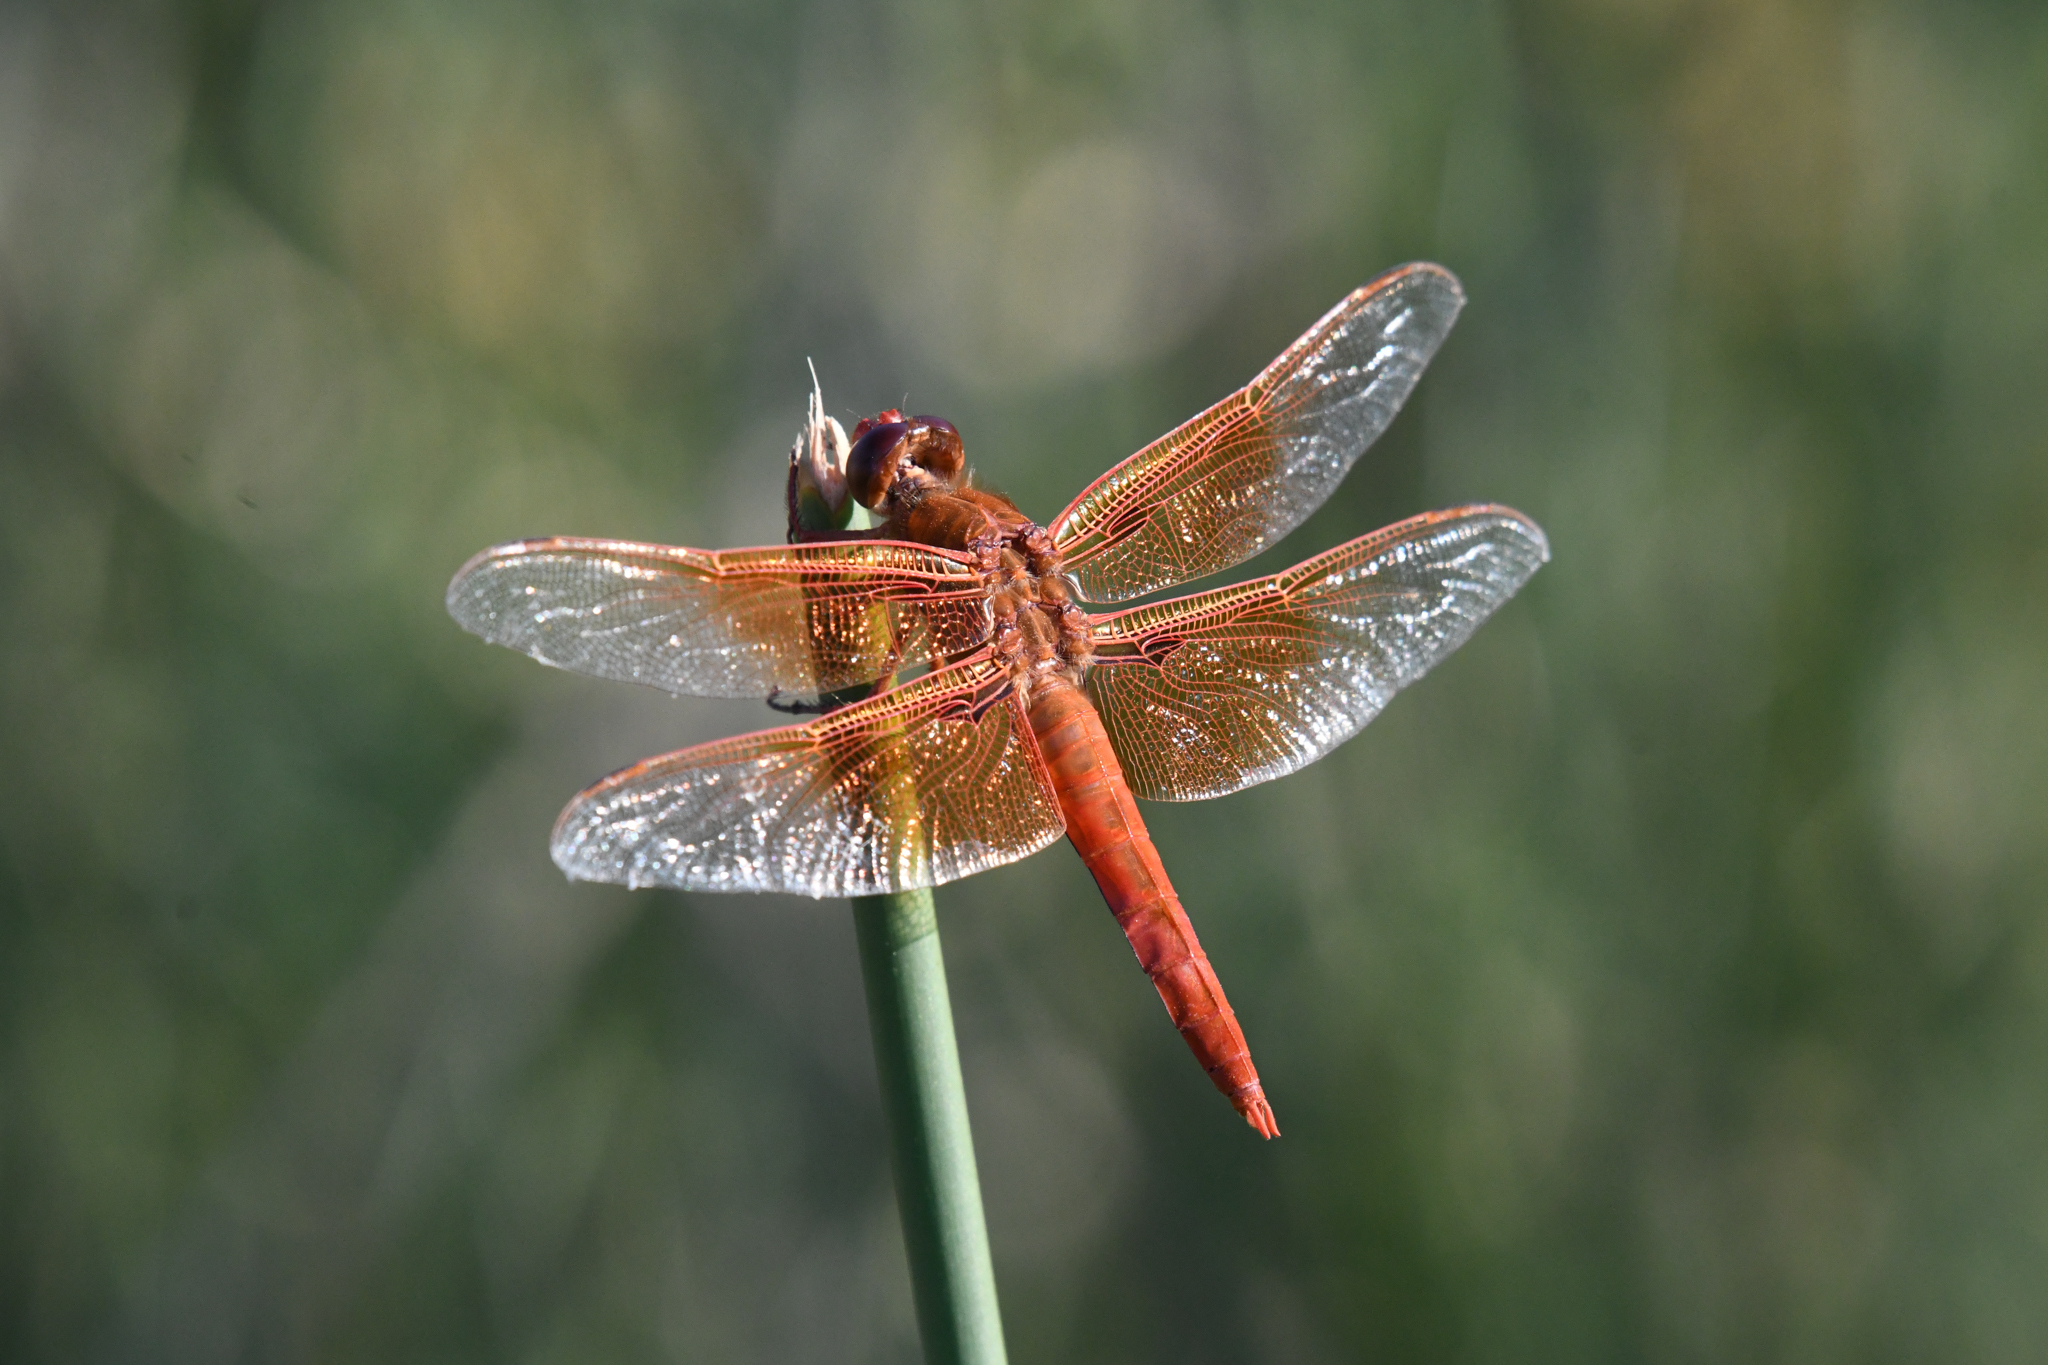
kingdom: Animalia
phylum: Arthropoda
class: Insecta
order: Odonata
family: Libellulidae
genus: Libellula
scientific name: Libellula saturata
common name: Flame skimmer
